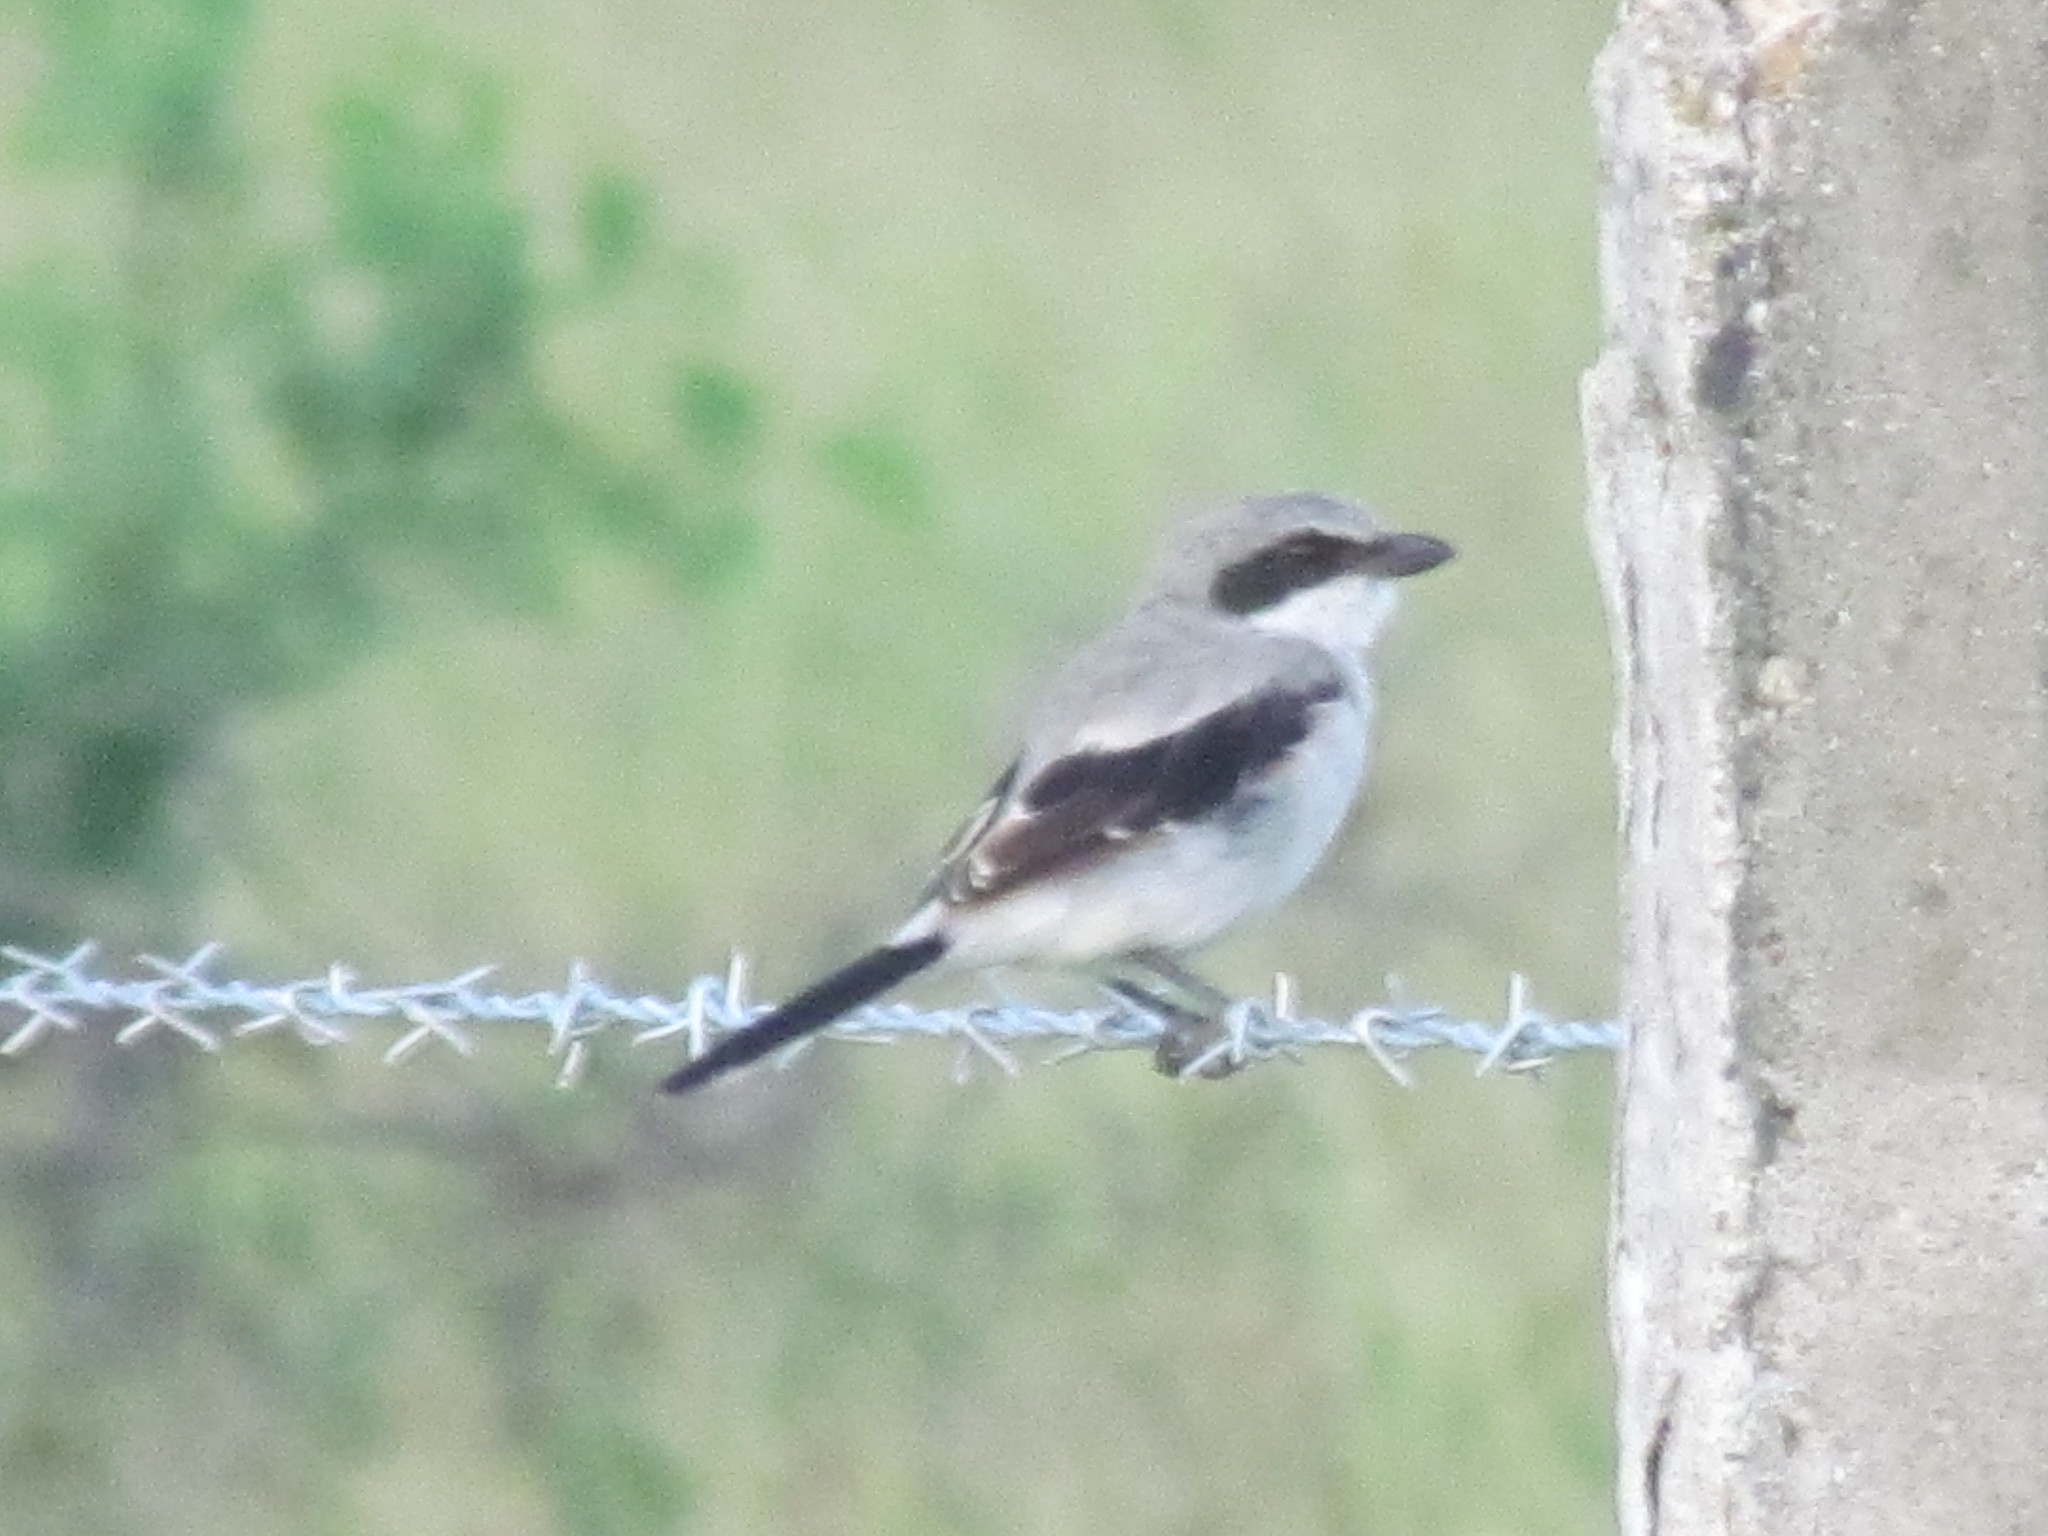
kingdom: Animalia
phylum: Chordata
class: Aves
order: Passeriformes
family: Laniidae
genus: Lanius
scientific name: Lanius ludovicianus
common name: Loggerhead shrike
